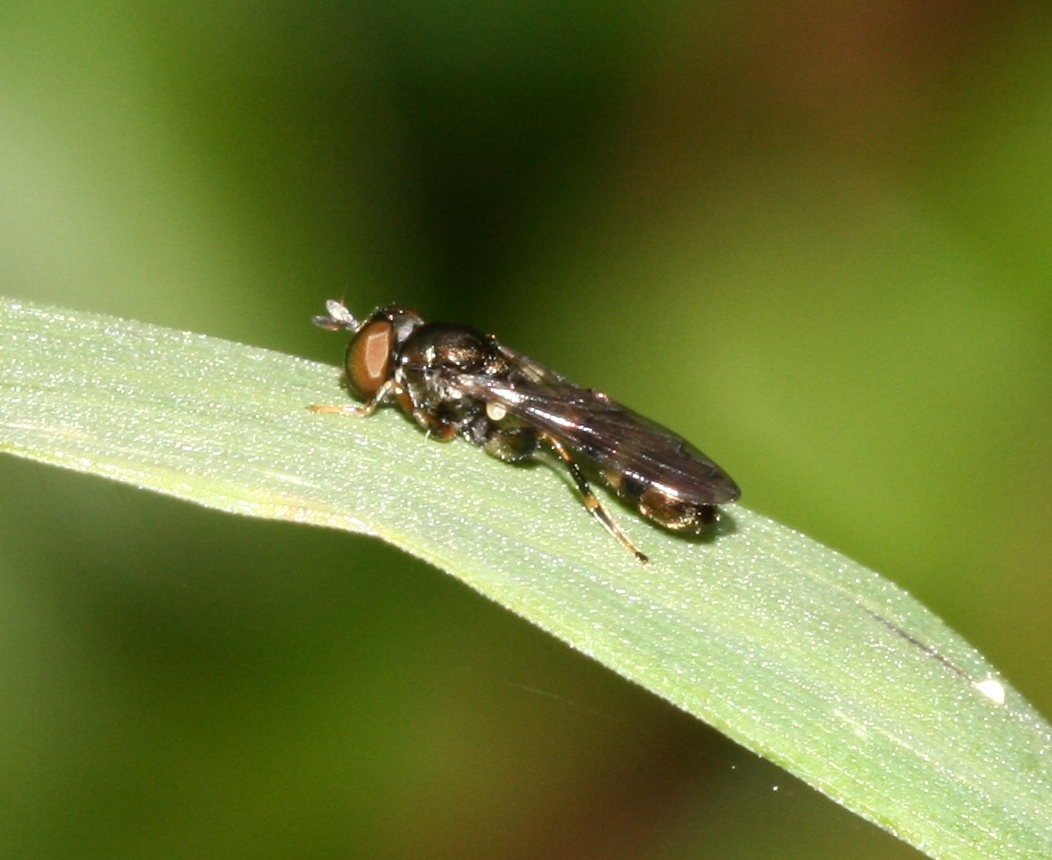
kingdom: Animalia
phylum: Arthropoda
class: Insecta
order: Diptera
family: Syrphidae
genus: Neoascia
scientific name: Neoascia
